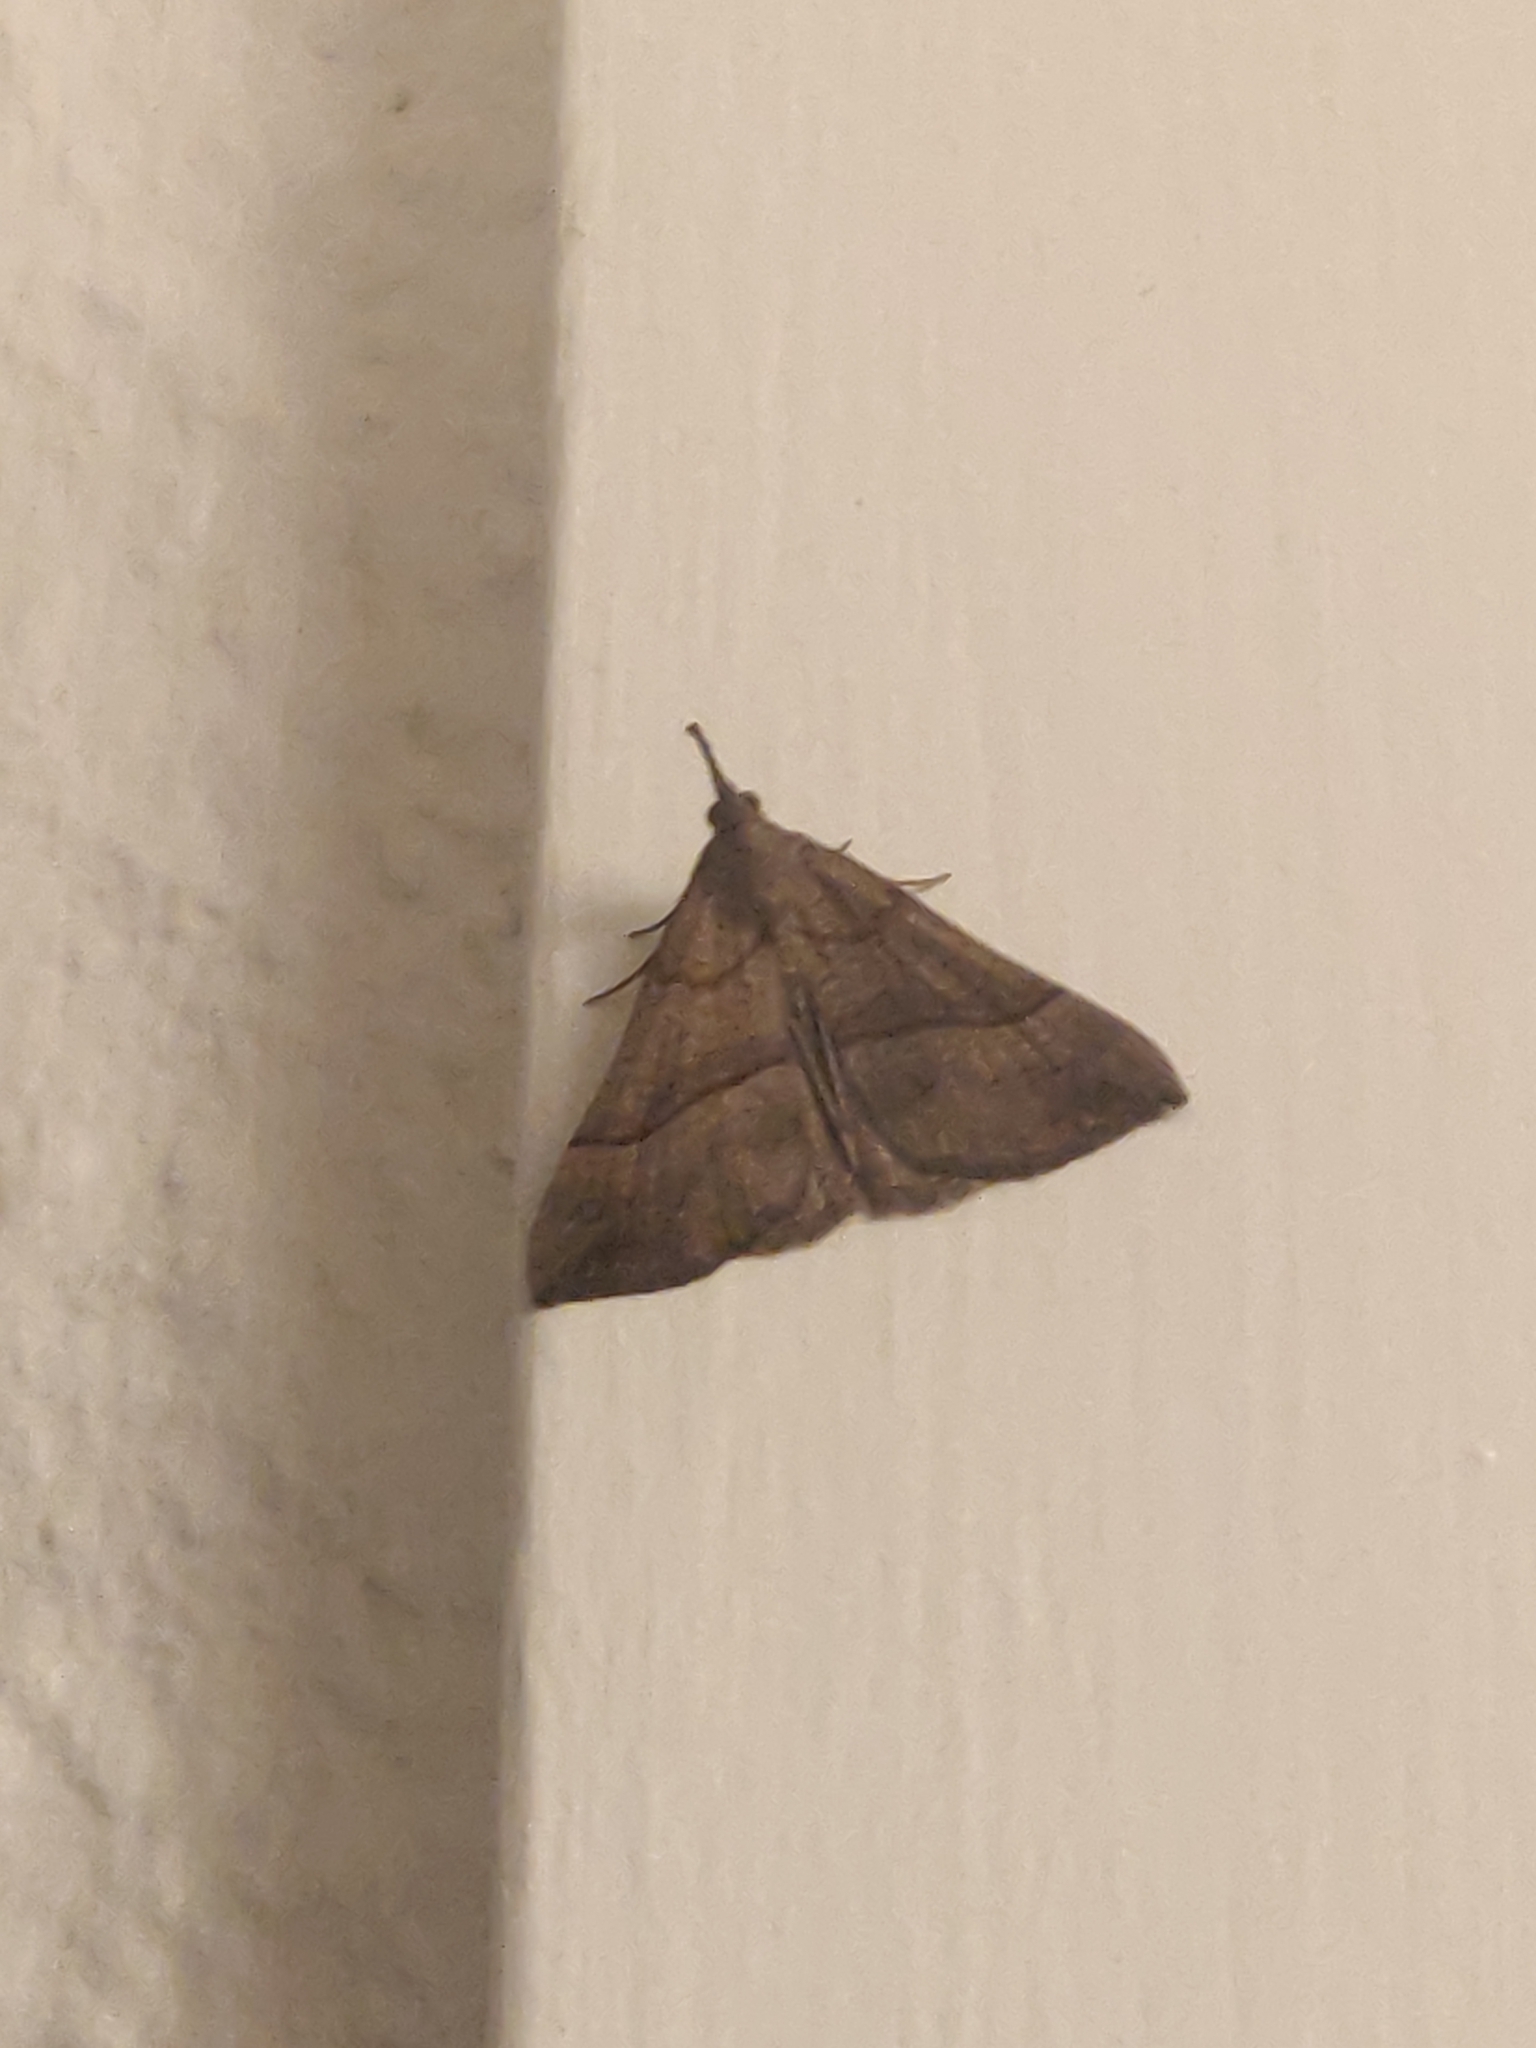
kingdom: Animalia
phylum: Arthropoda
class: Insecta
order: Lepidoptera
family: Erebidae
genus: Hypena
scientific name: Hypena proboscidalis
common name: Snout
